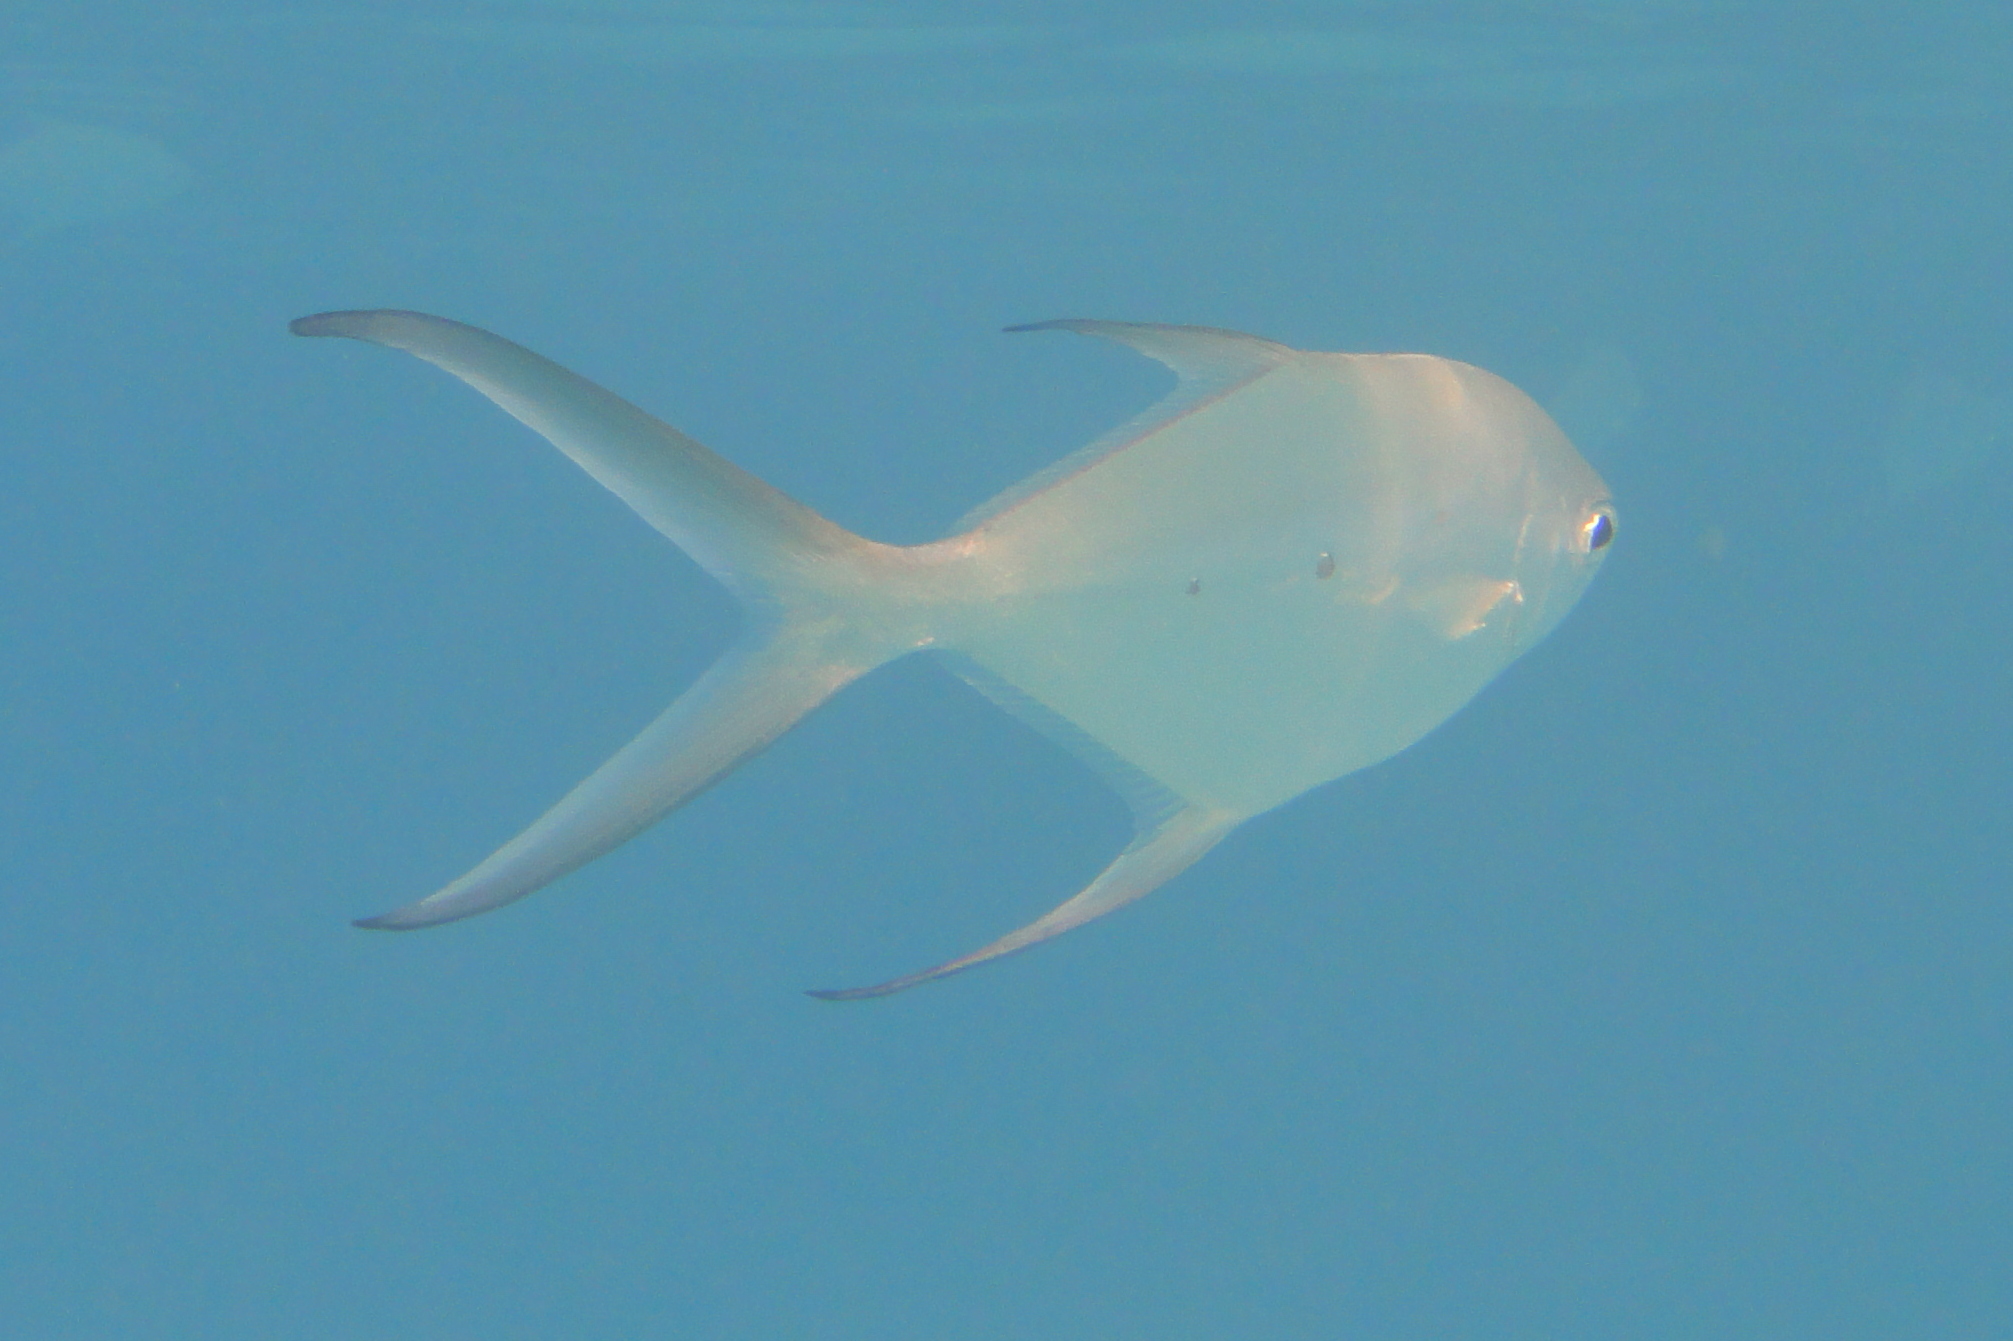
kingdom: Animalia
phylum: Chordata
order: Perciformes
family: Carangidae
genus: Trachinotus
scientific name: Trachinotus baillonii
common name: Smallspotted dart
